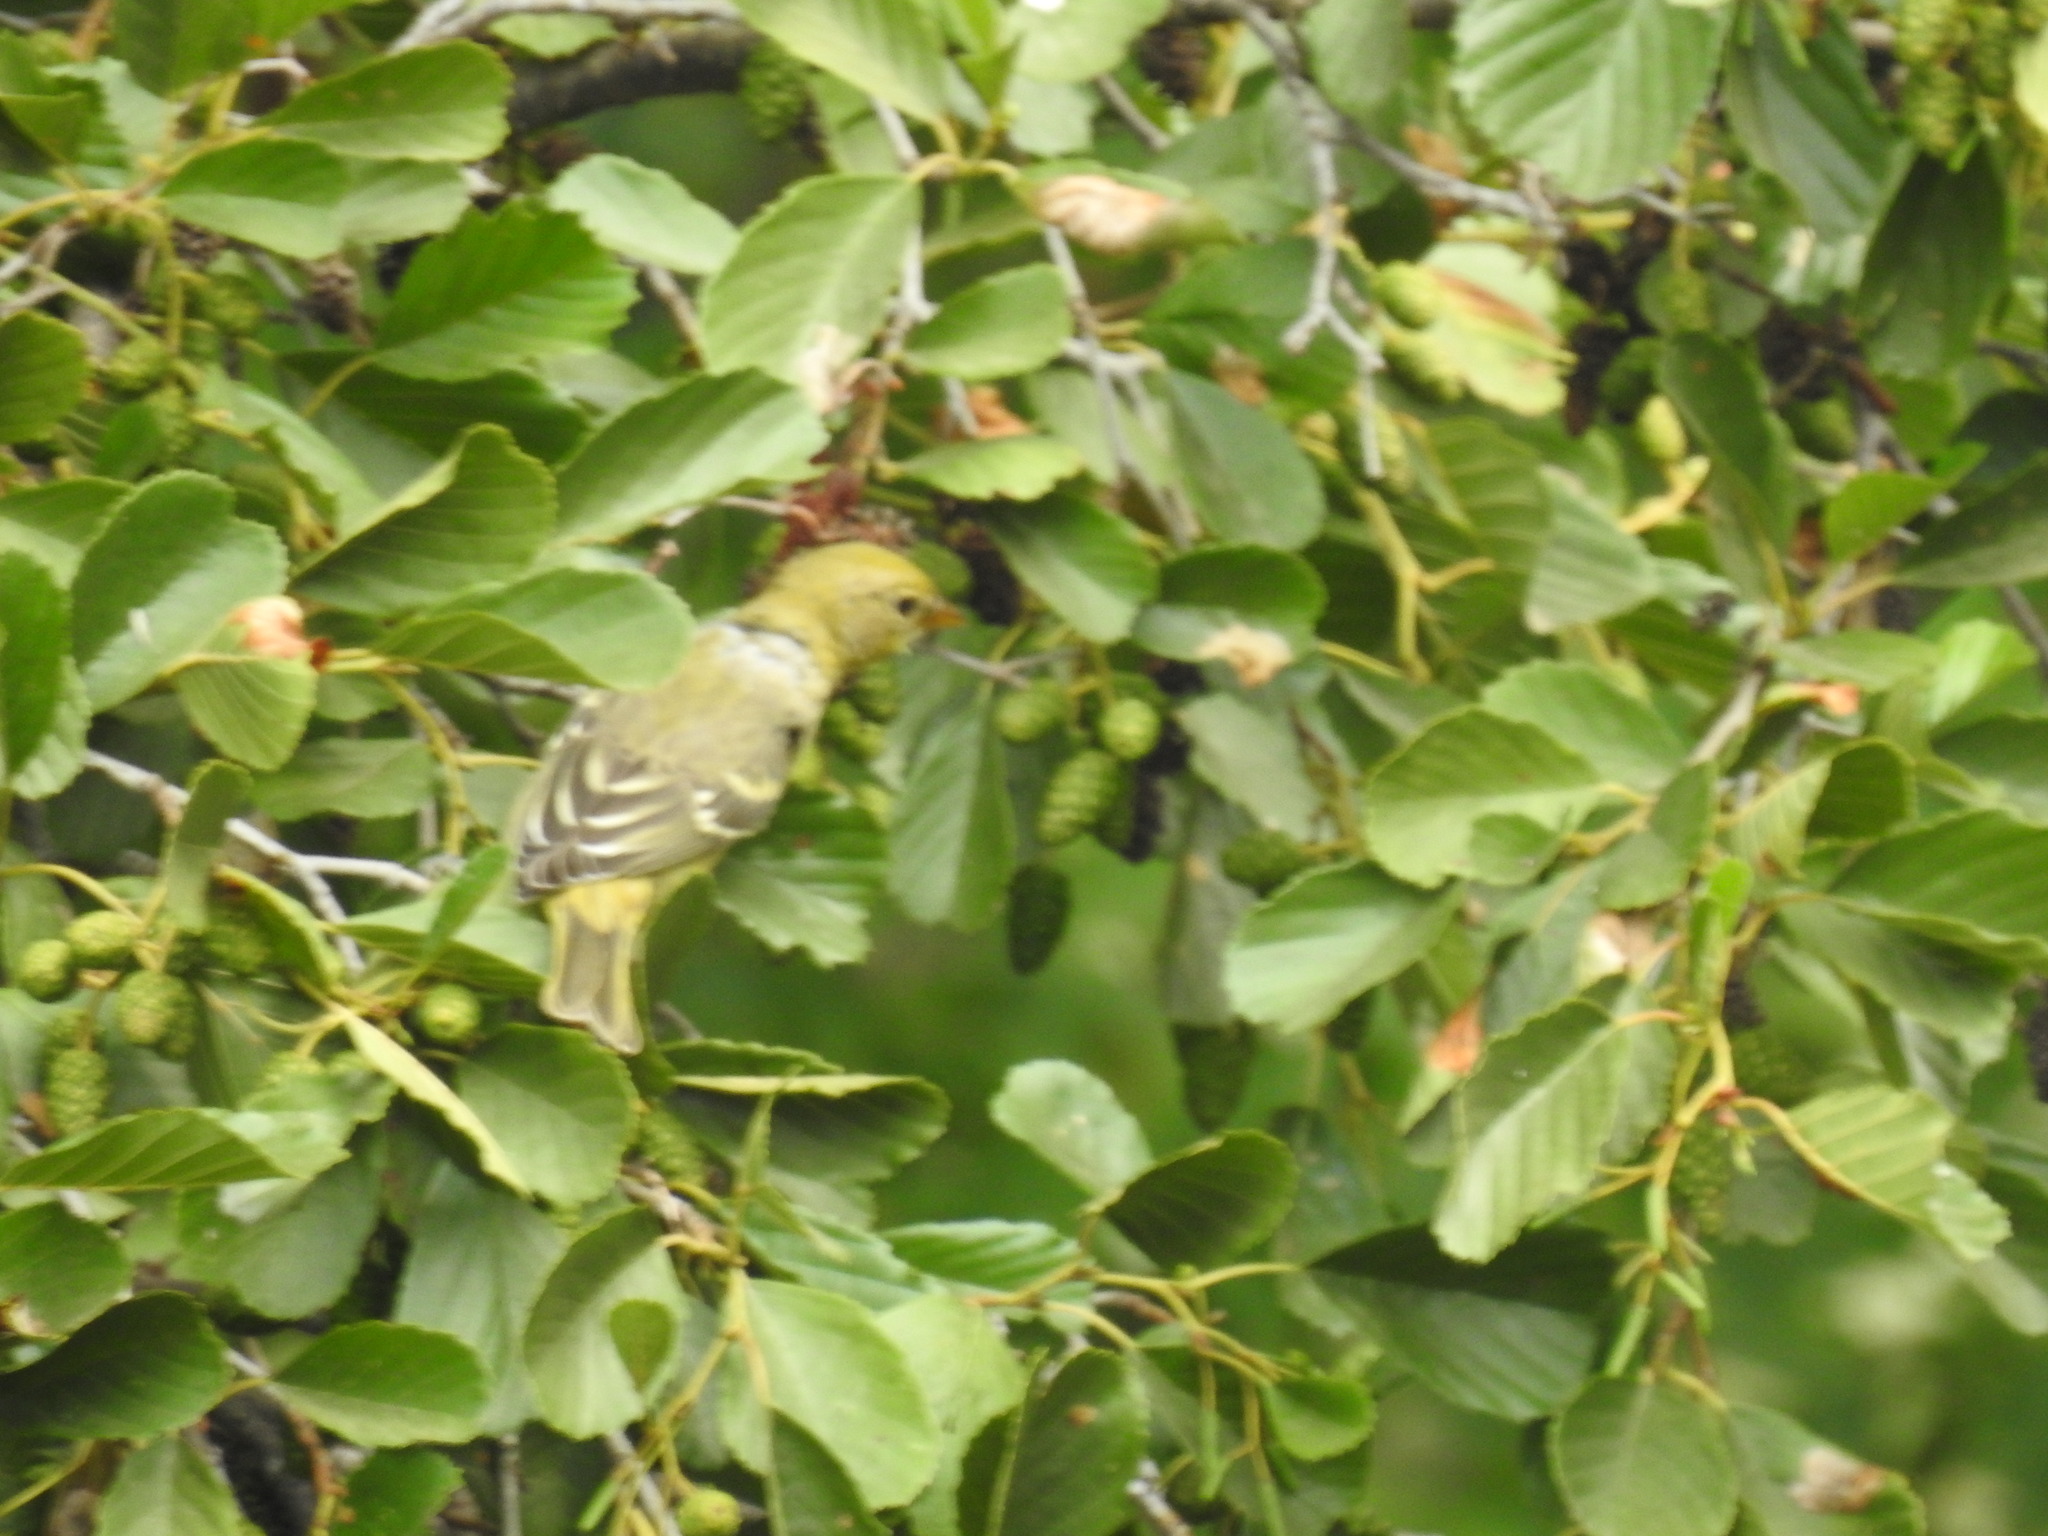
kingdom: Animalia
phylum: Chordata
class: Aves
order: Passeriformes
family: Cardinalidae
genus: Piranga
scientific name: Piranga ludoviciana
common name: Western tanager
